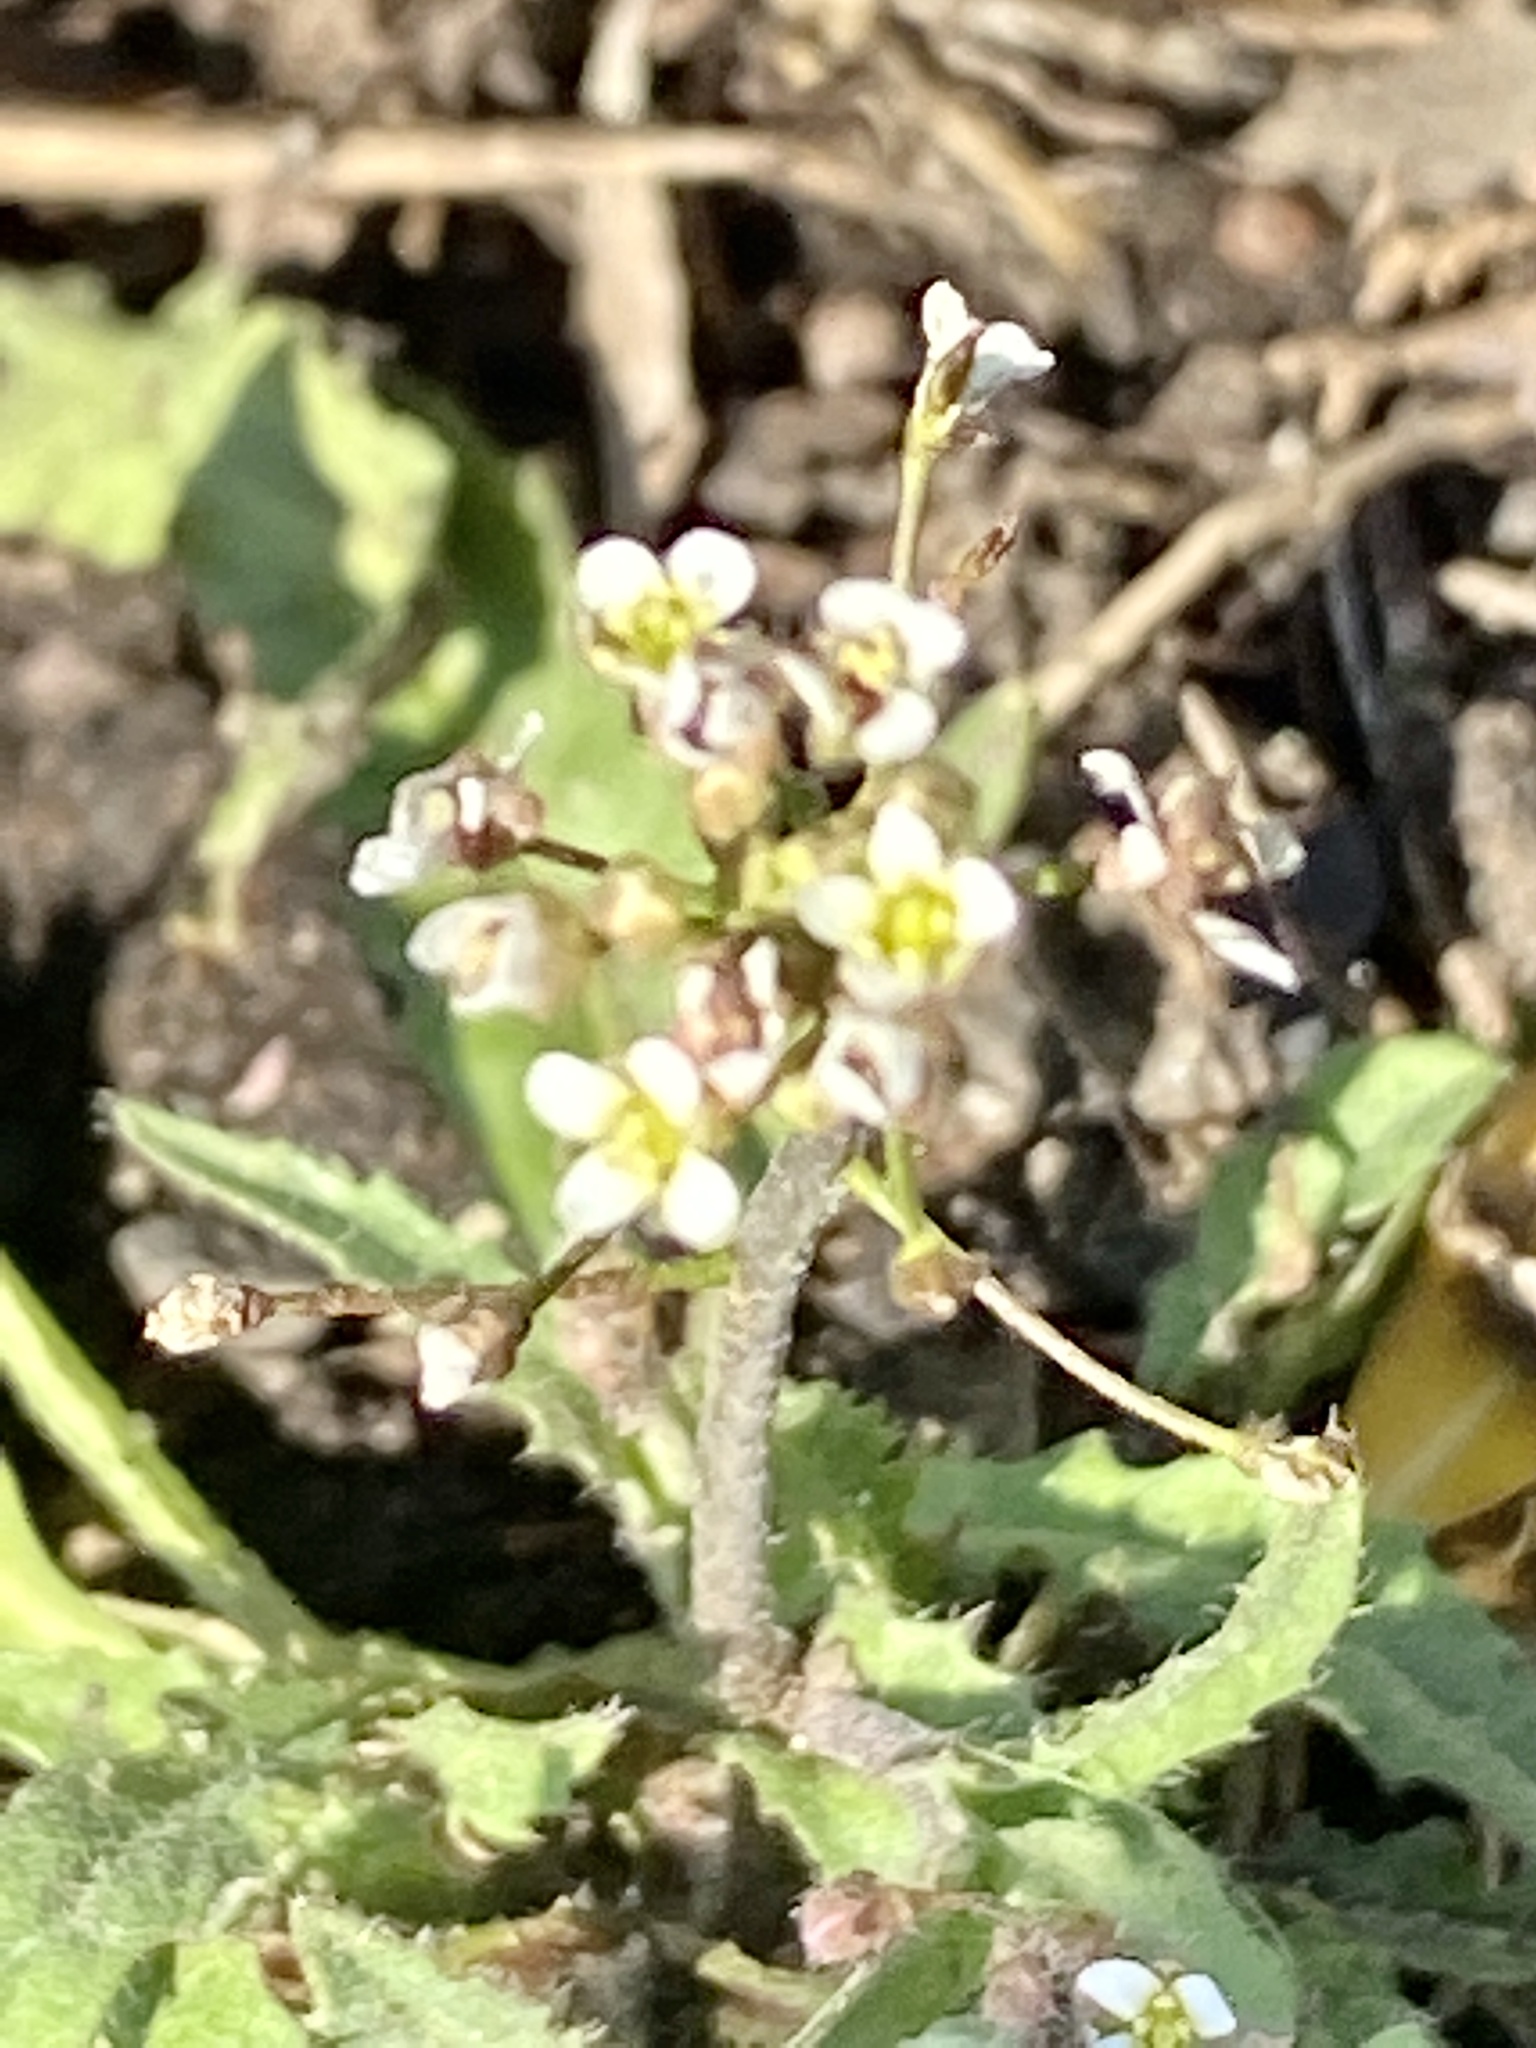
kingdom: Plantae
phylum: Tracheophyta
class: Magnoliopsida
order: Brassicales
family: Brassicaceae
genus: Capsella
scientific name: Capsella bursa-pastoris
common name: Shepherd's purse
